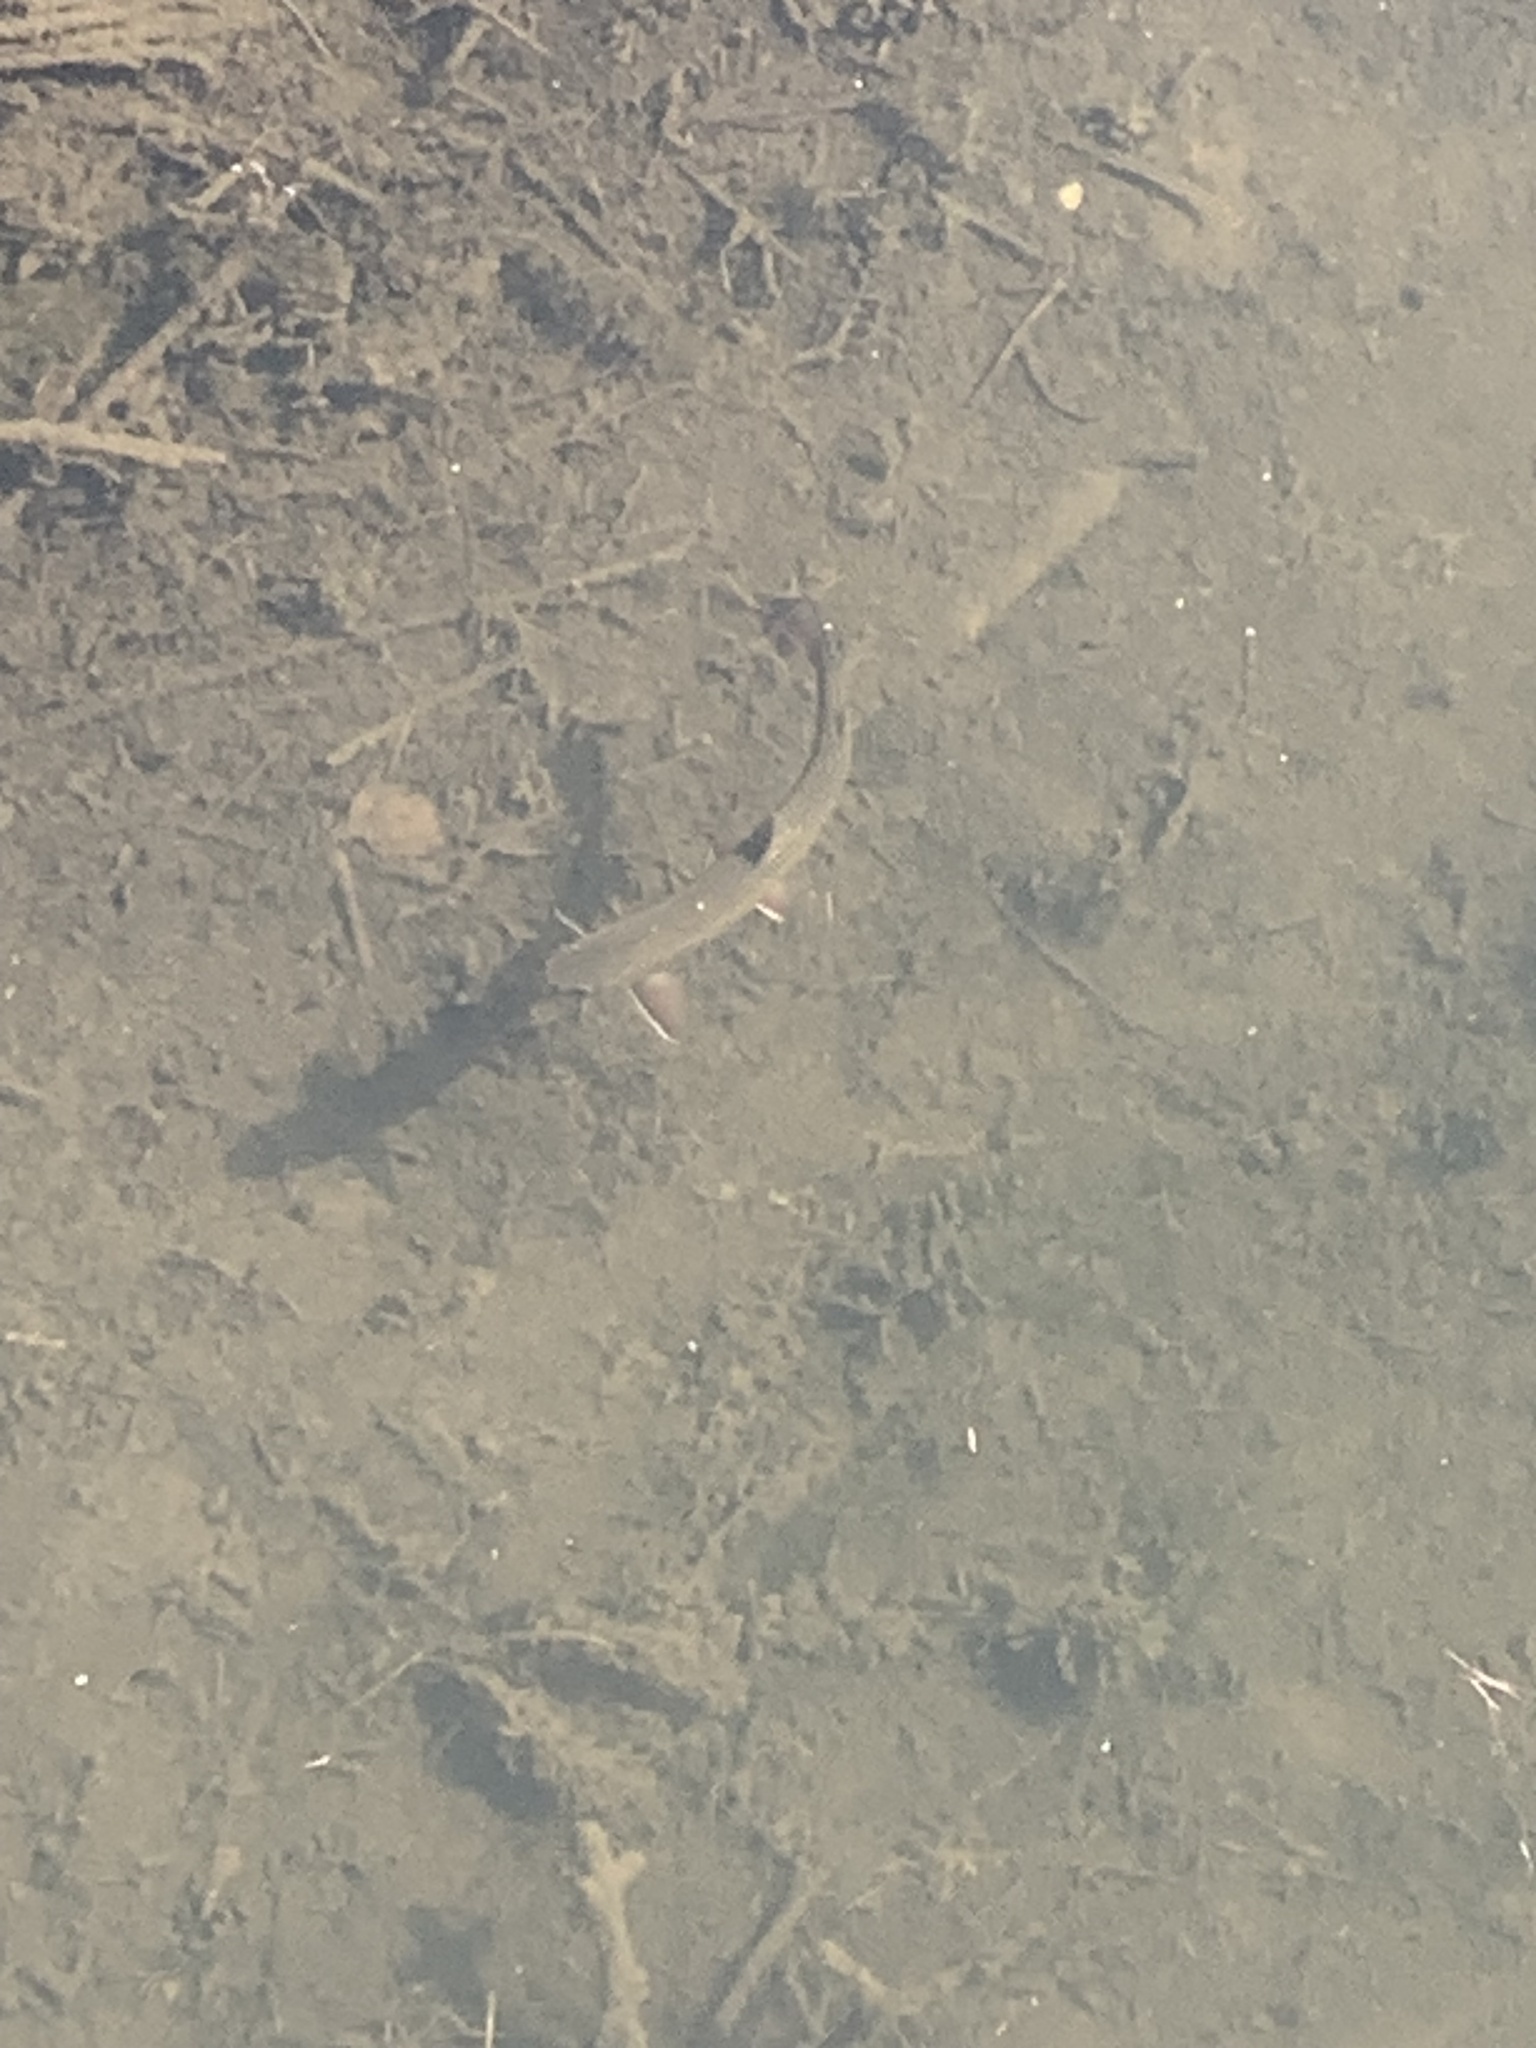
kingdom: Animalia
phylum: Chordata
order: Salmoniformes
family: Salmonidae
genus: Salvelinus
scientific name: Salvelinus fontinalis
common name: Brook trout
